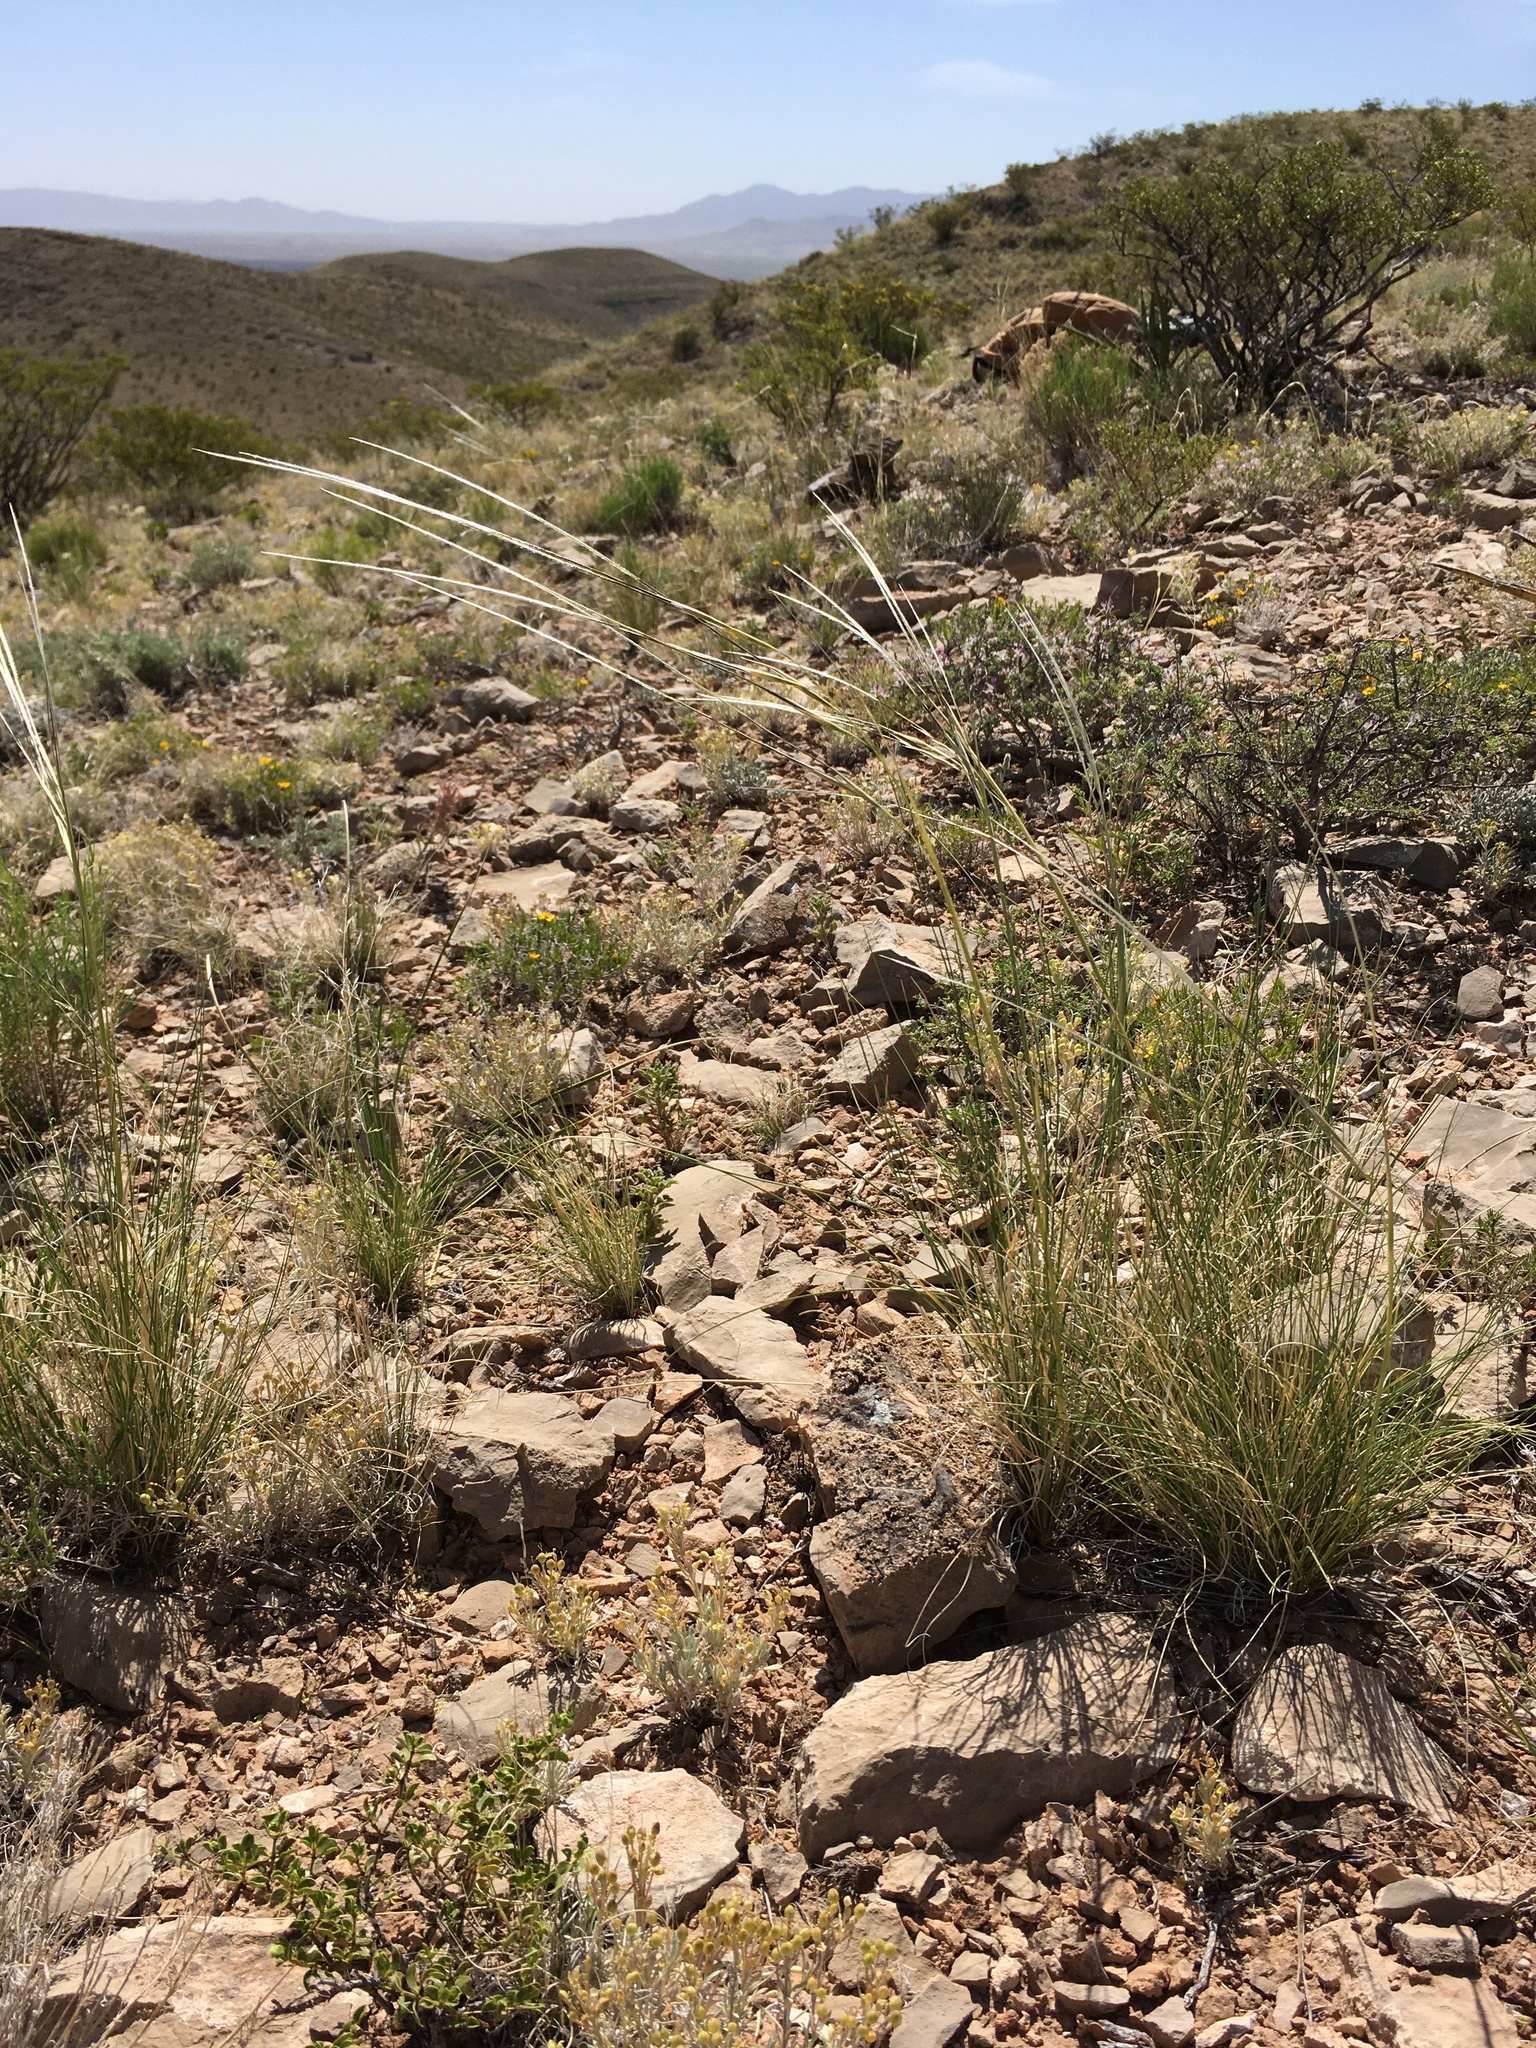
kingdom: Plantae
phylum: Tracheophyta
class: Liliopsida
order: Poales
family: Poaceae
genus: Hesperostipa
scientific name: Hesperostipa neomexicana
